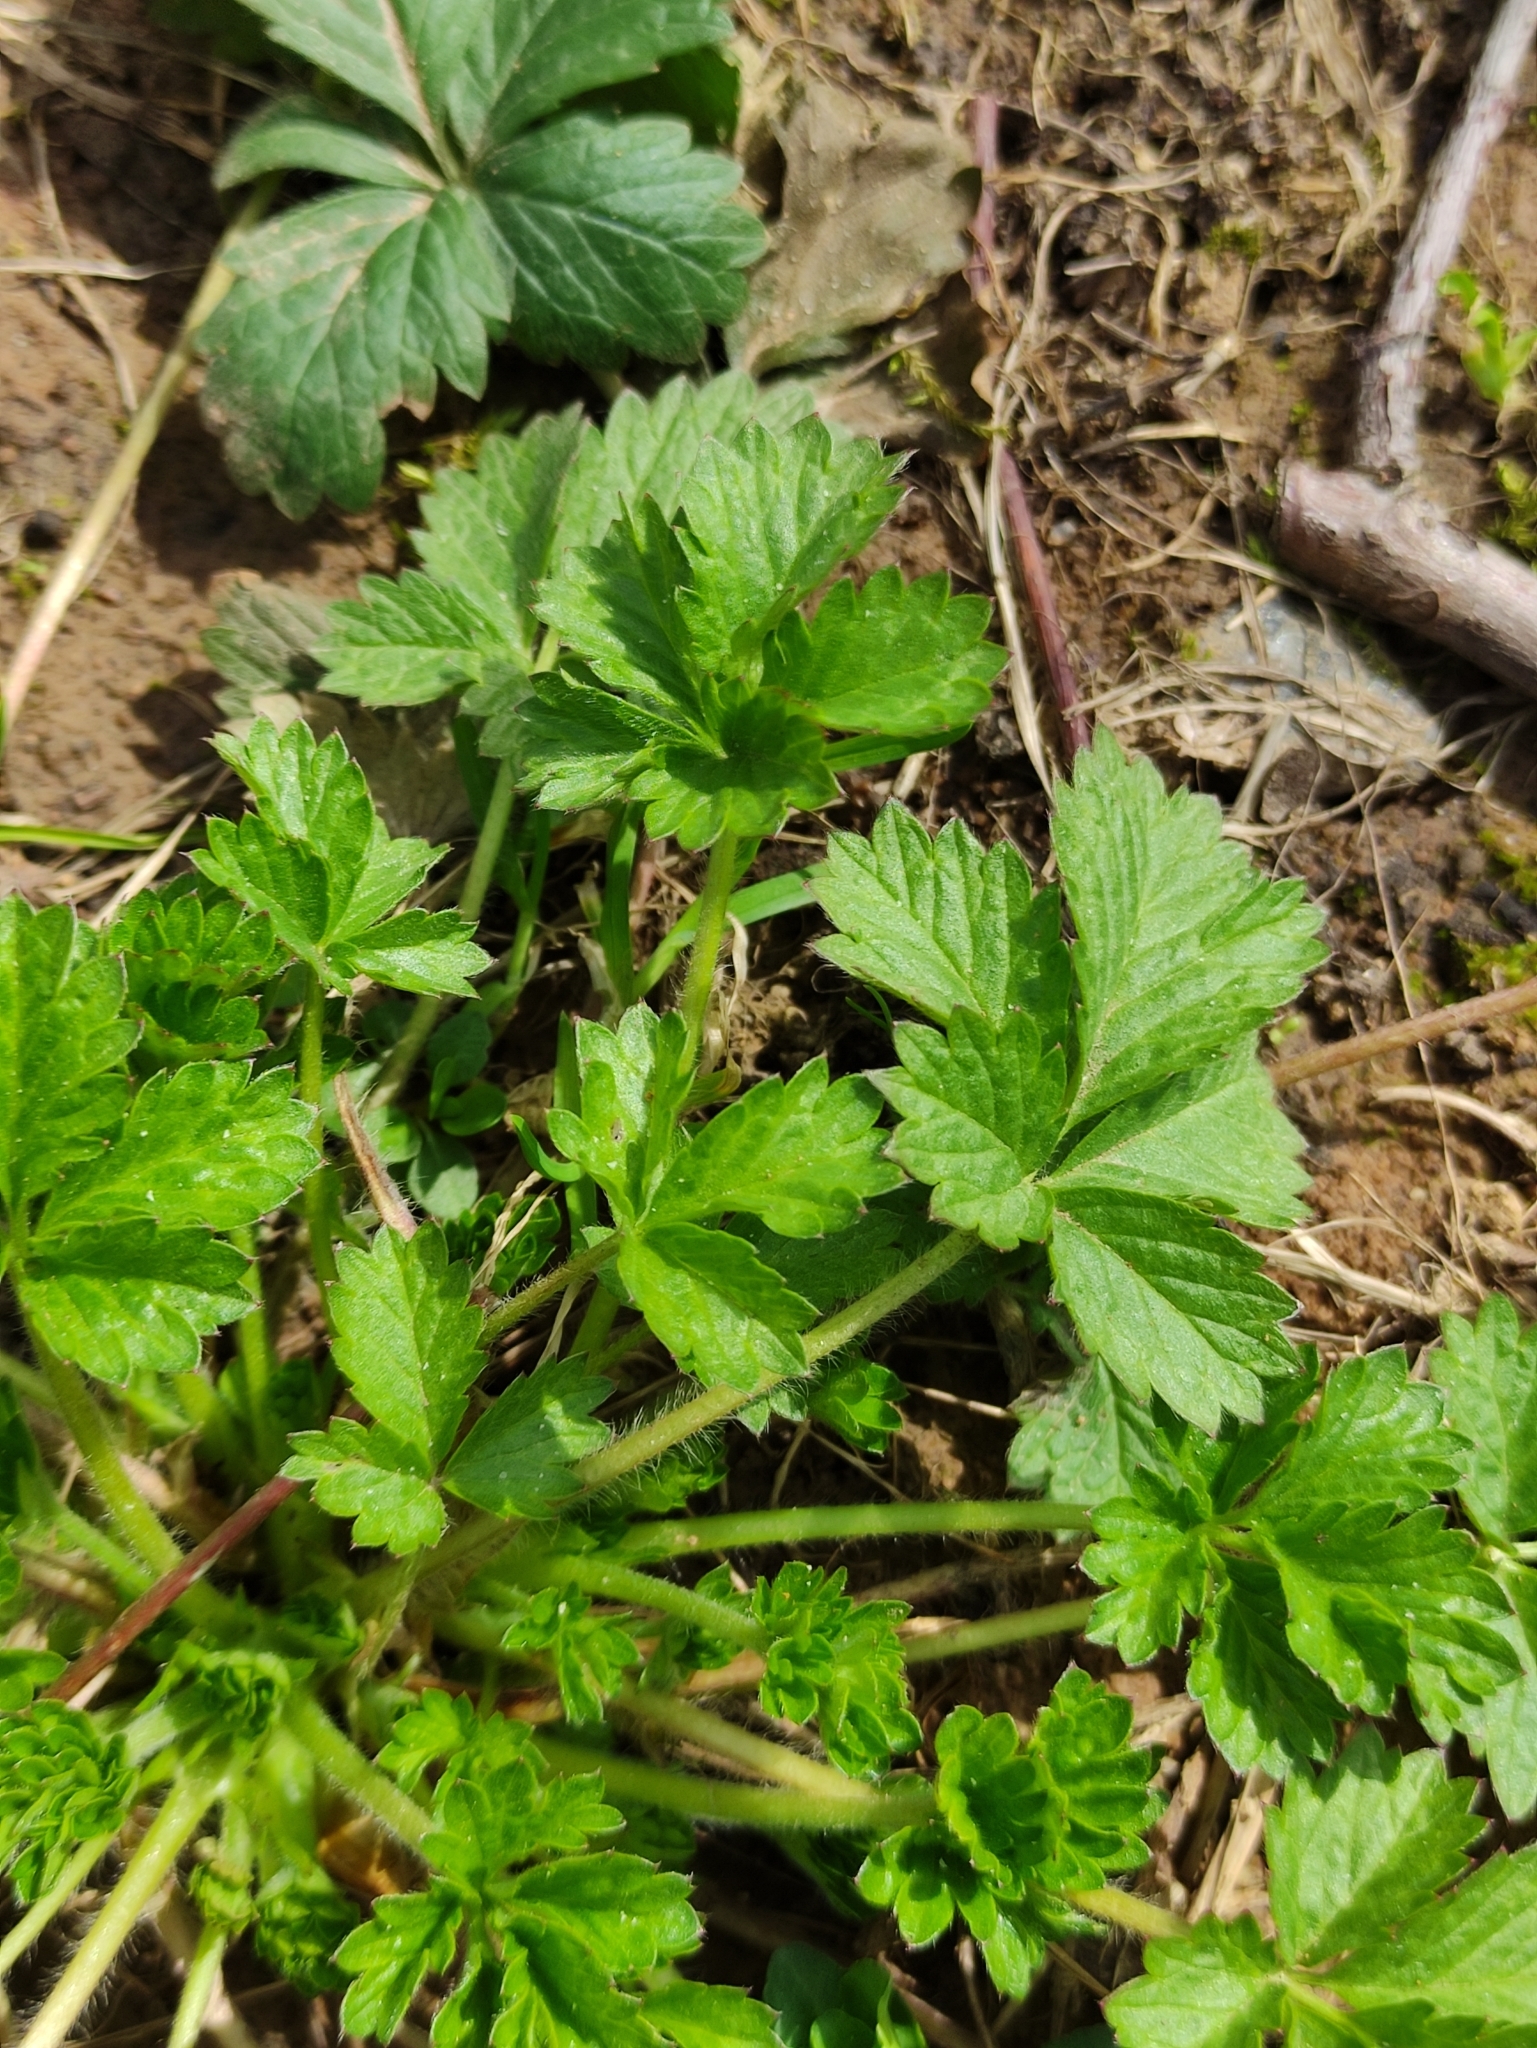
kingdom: Plantae
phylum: Tracheophyta
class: Magnoliopsida
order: Rosales
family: Rosaceae
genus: Potentilla
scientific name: Potentilla intermedia
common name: Downy cinquefoil
